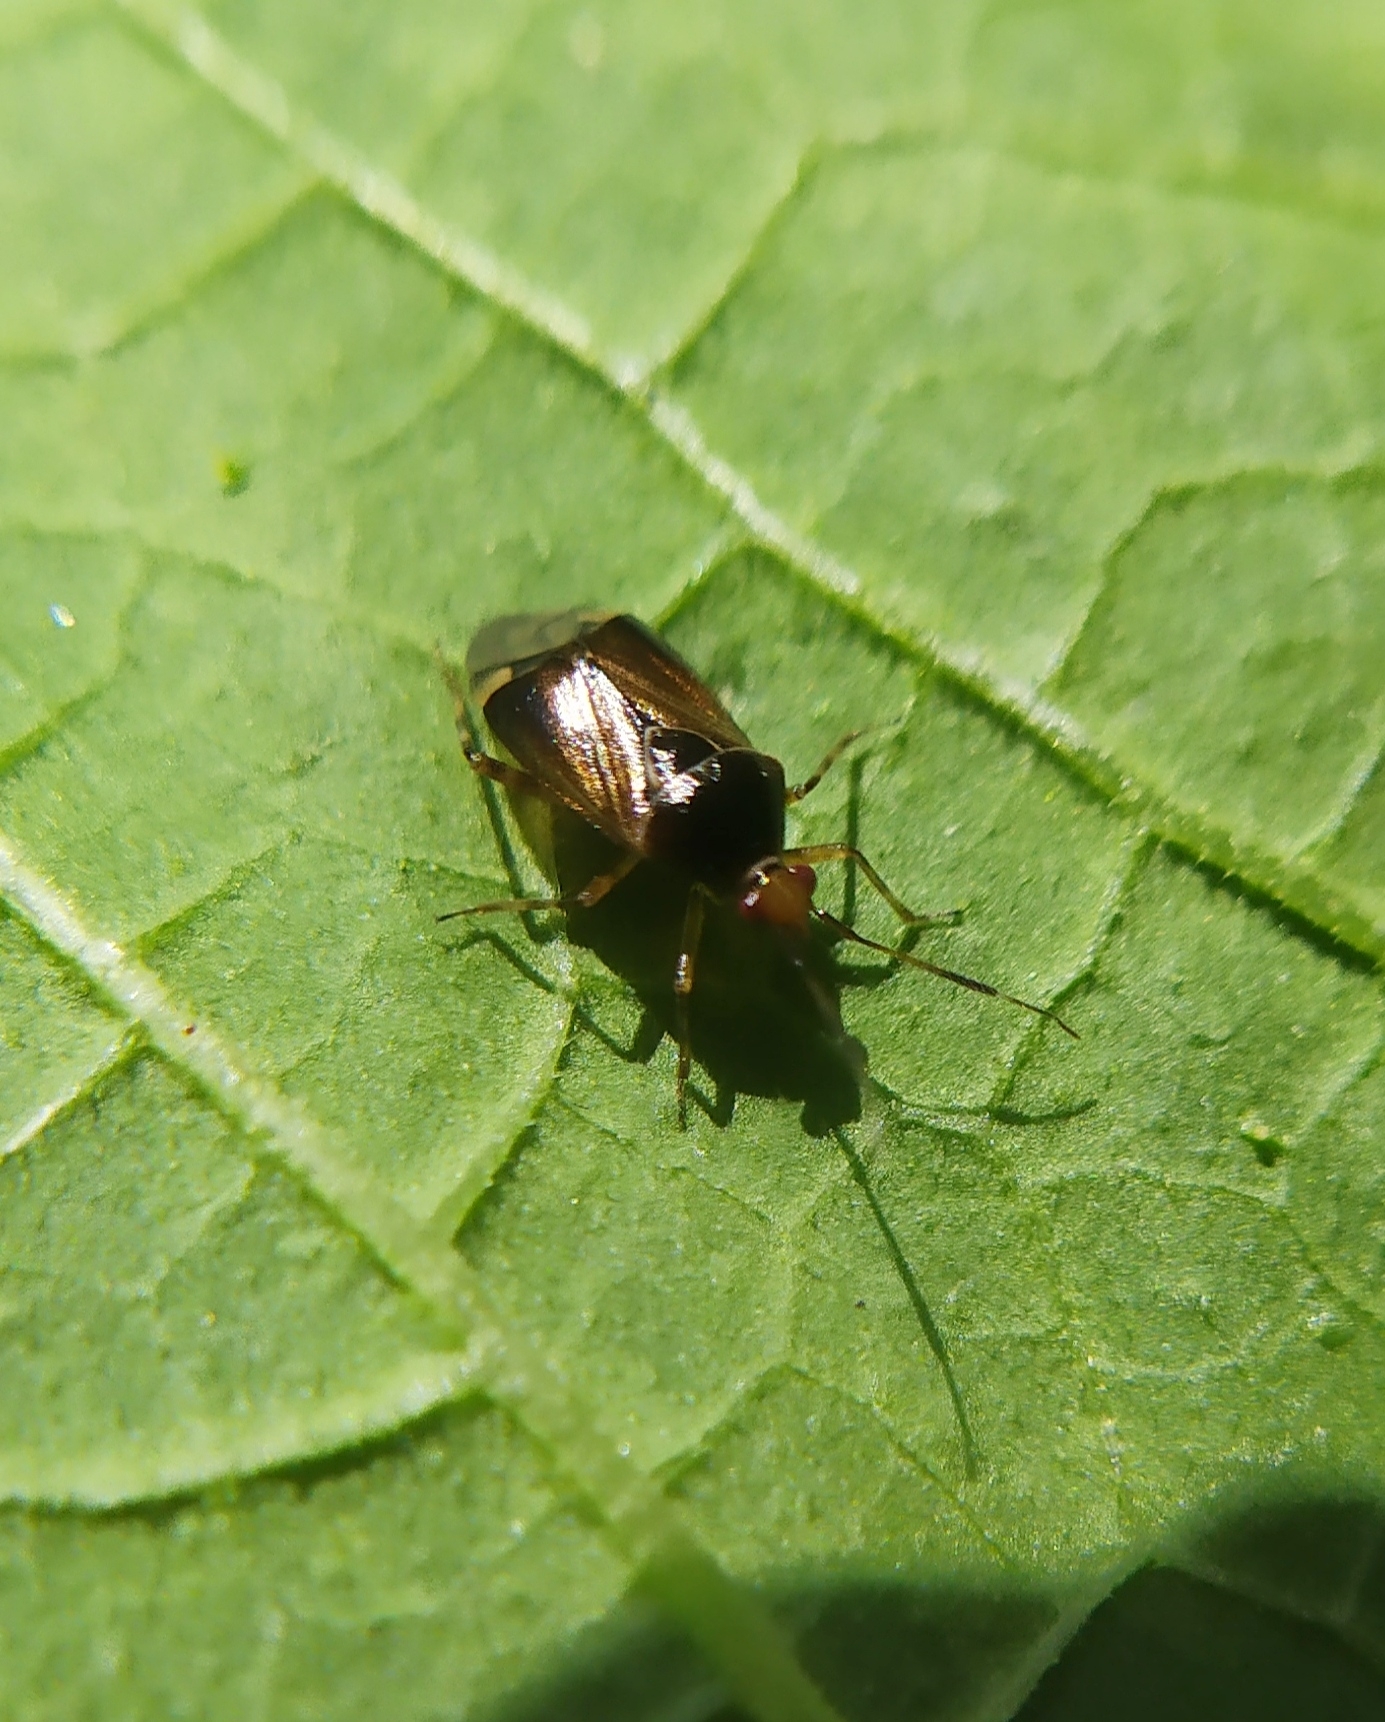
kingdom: Animalia
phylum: Arthropoda
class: Insecta
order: Hemiptera
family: Miridae
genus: Deraeocoris
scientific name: Deraeocoris flavilinea
